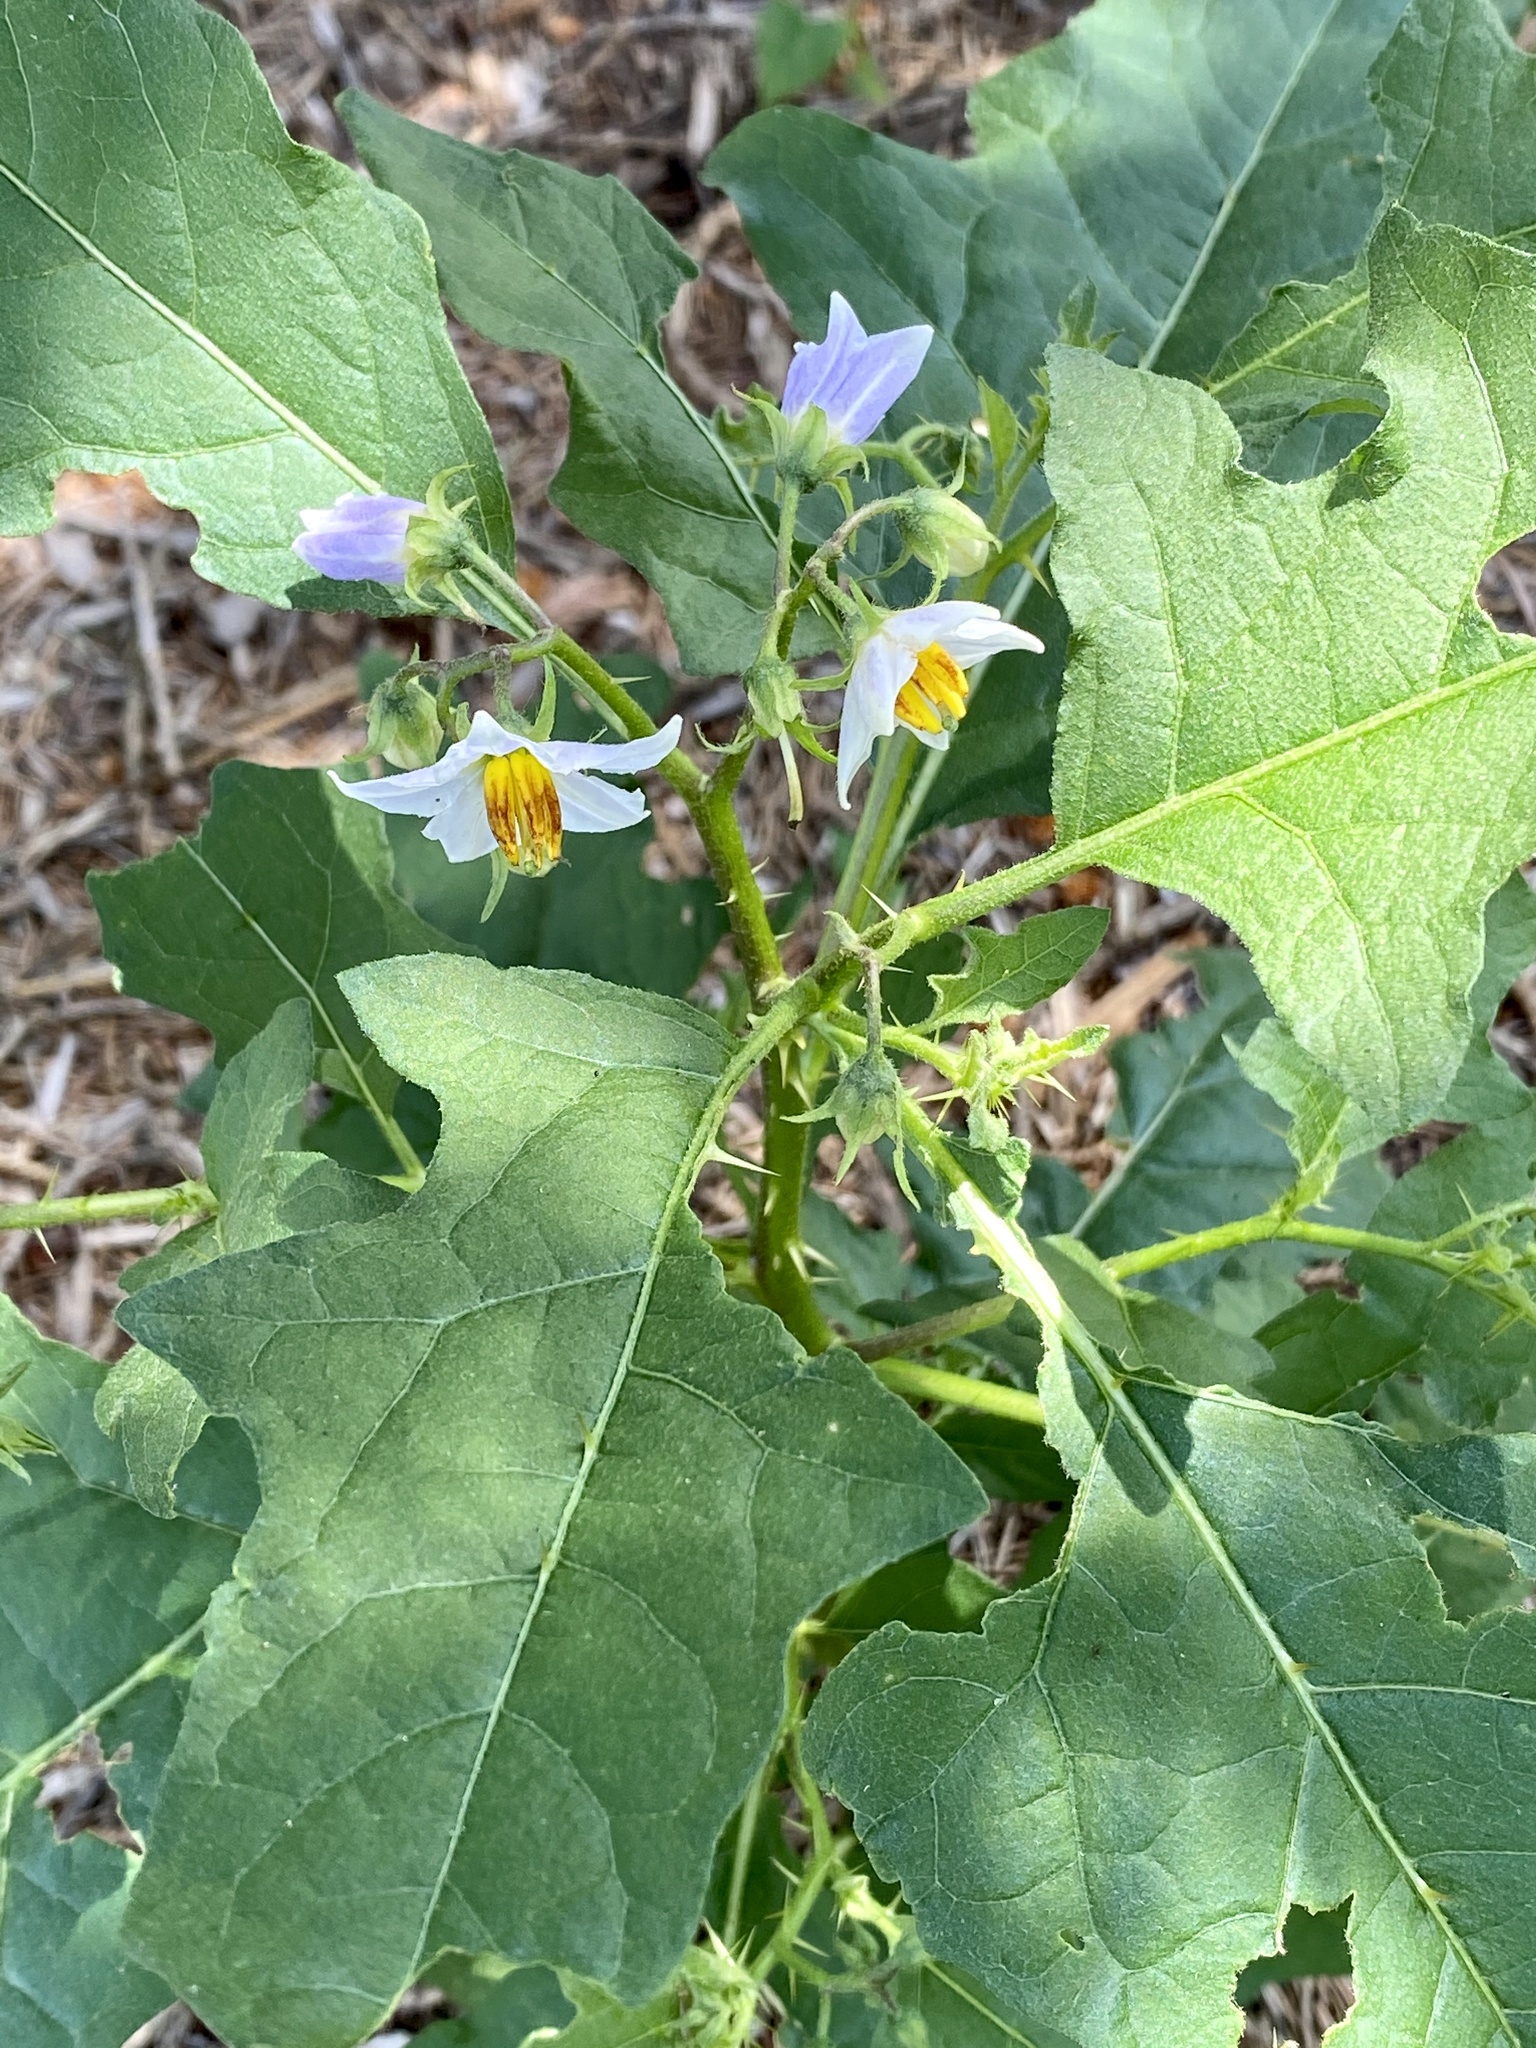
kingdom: Plantae
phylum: Tracheophyta
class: Magnoliopsida
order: Solanales
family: Solanaceae
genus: Solanum
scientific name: Solanum carolinense
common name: Horse-nettle
